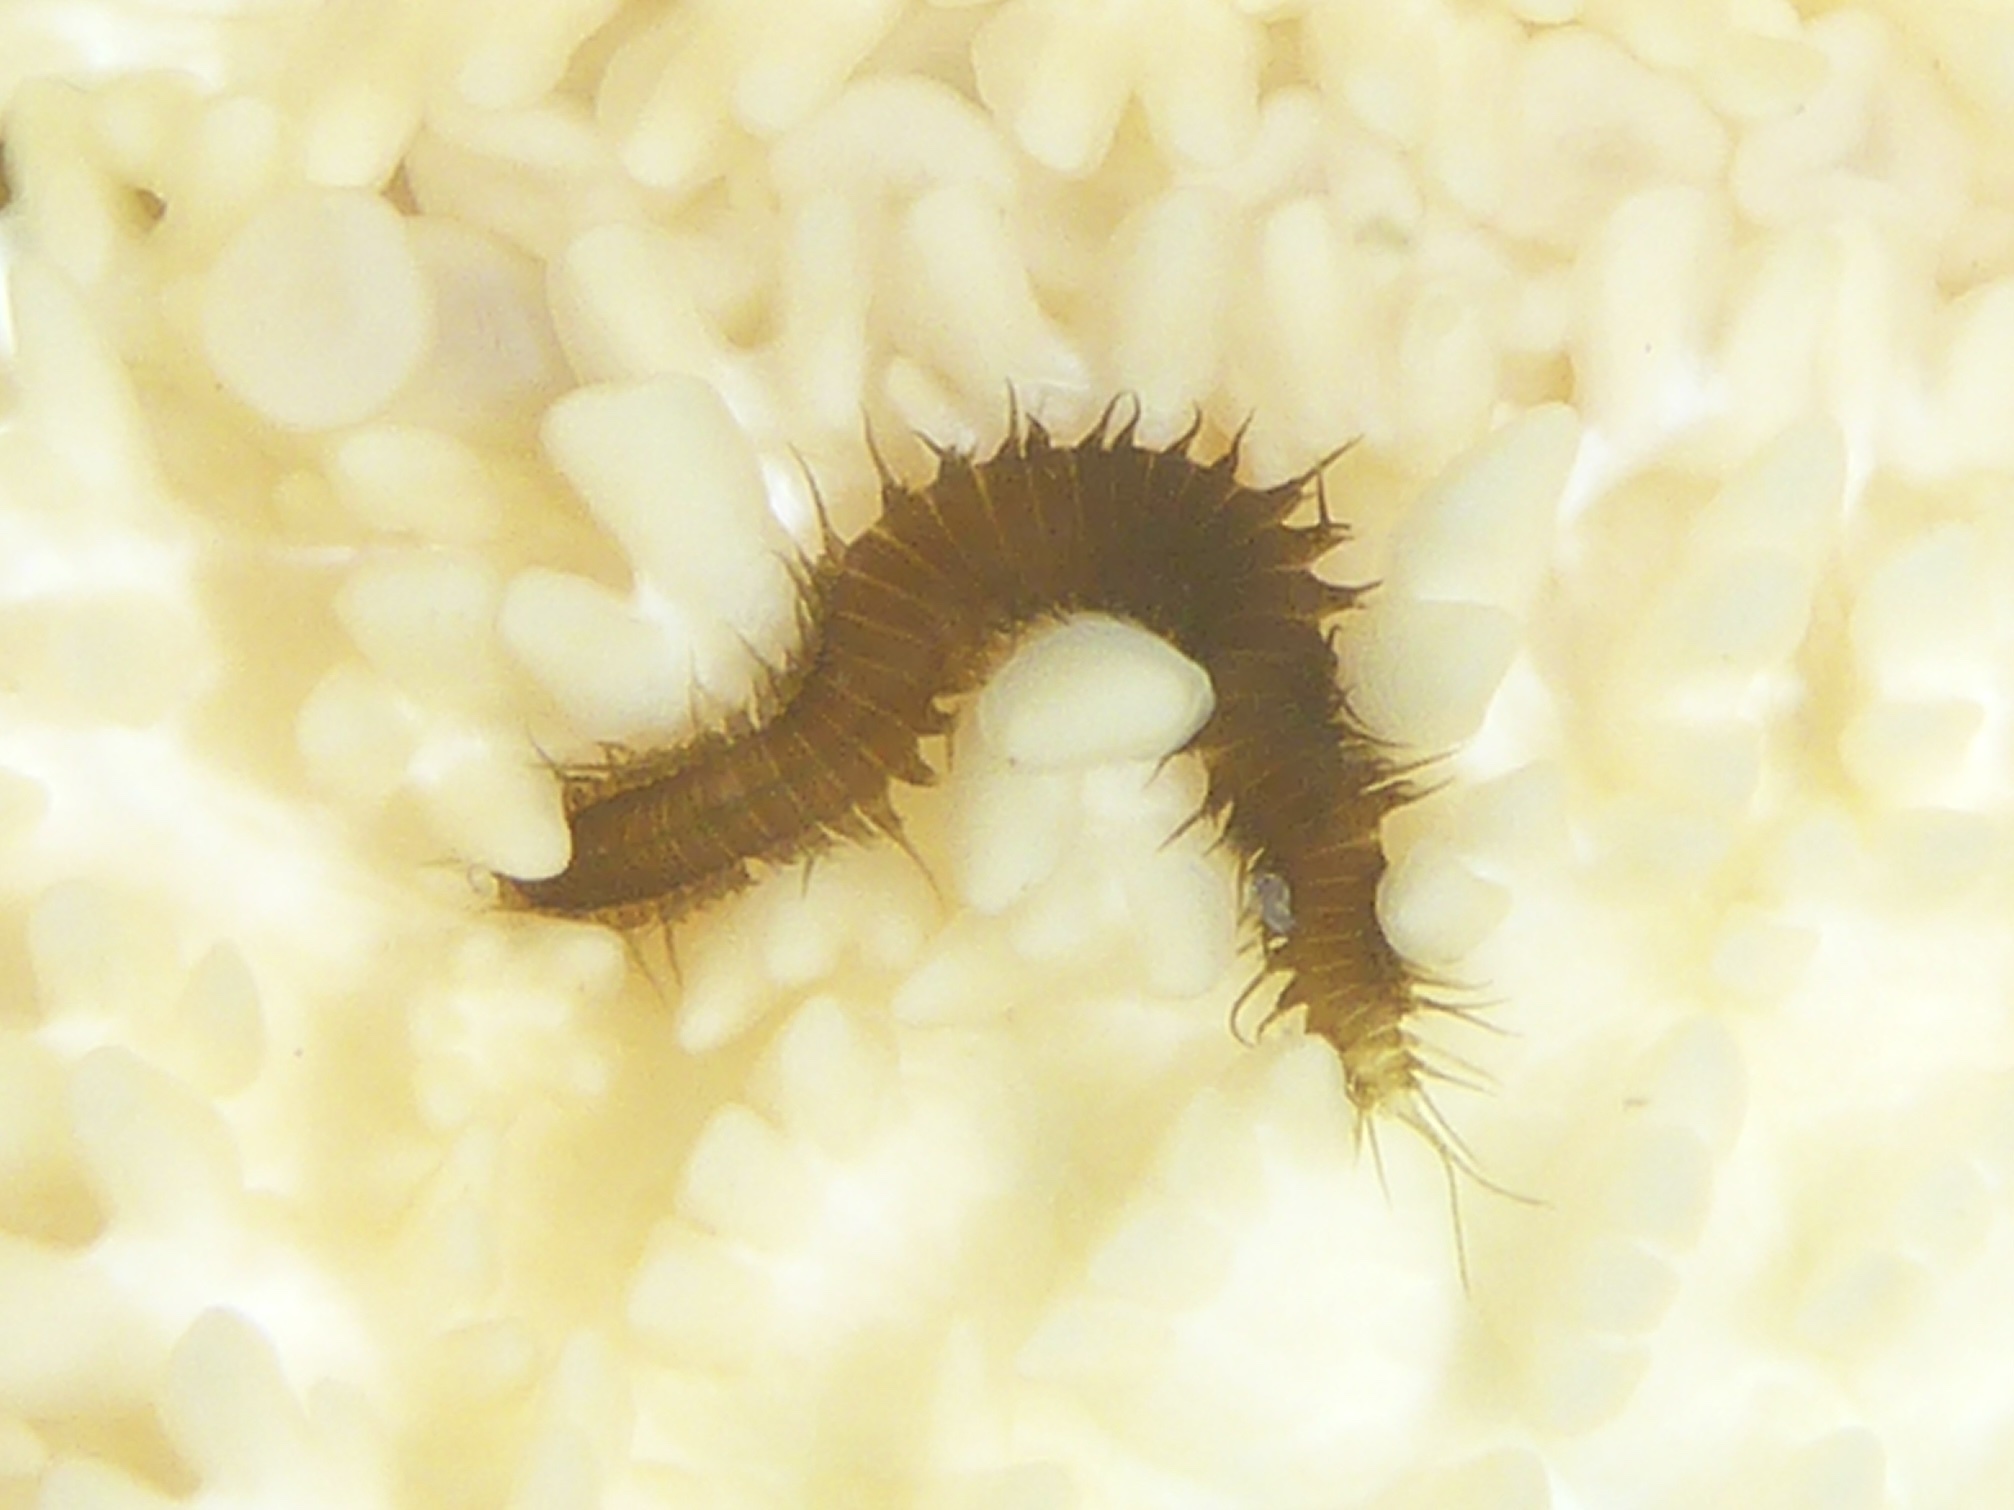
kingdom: Animalia
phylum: Annelida
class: Polychaeta
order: Phyllodocida
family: Hesionidae
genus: Oxydromus
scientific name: Oxydromus pugettensis
